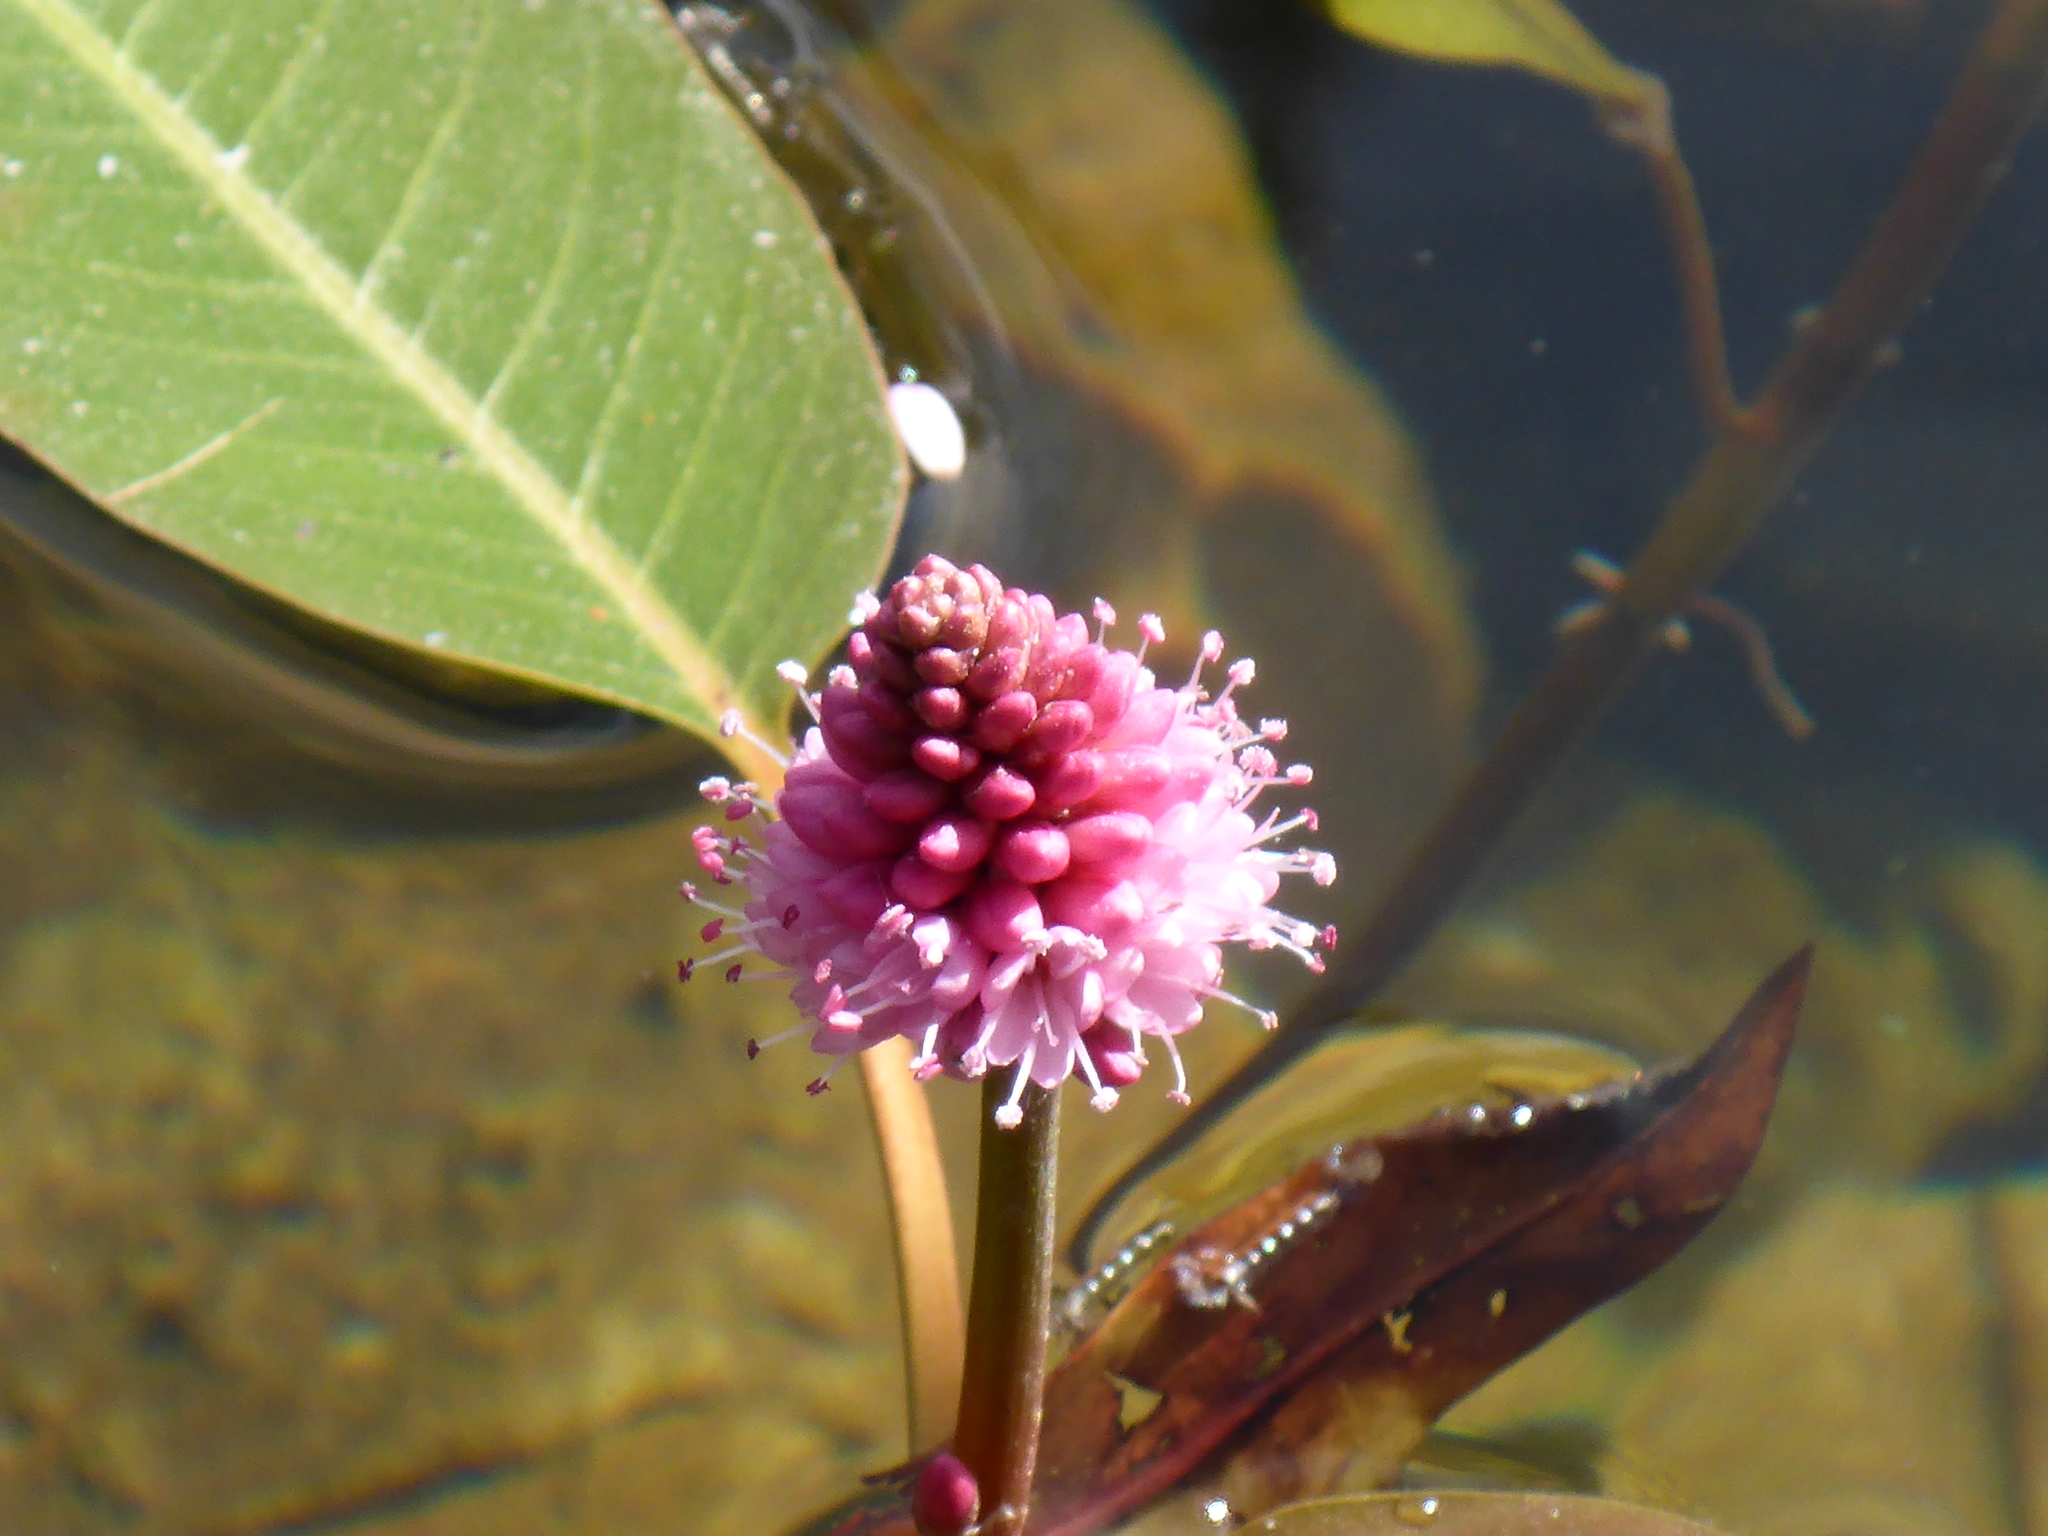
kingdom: Plantae
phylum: Tracheophyta
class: Magnoliopsida
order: Caryophyllales
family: Polygonaceae
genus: Persicaria
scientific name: Persicaria amphibia
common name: Amphibious bistort
